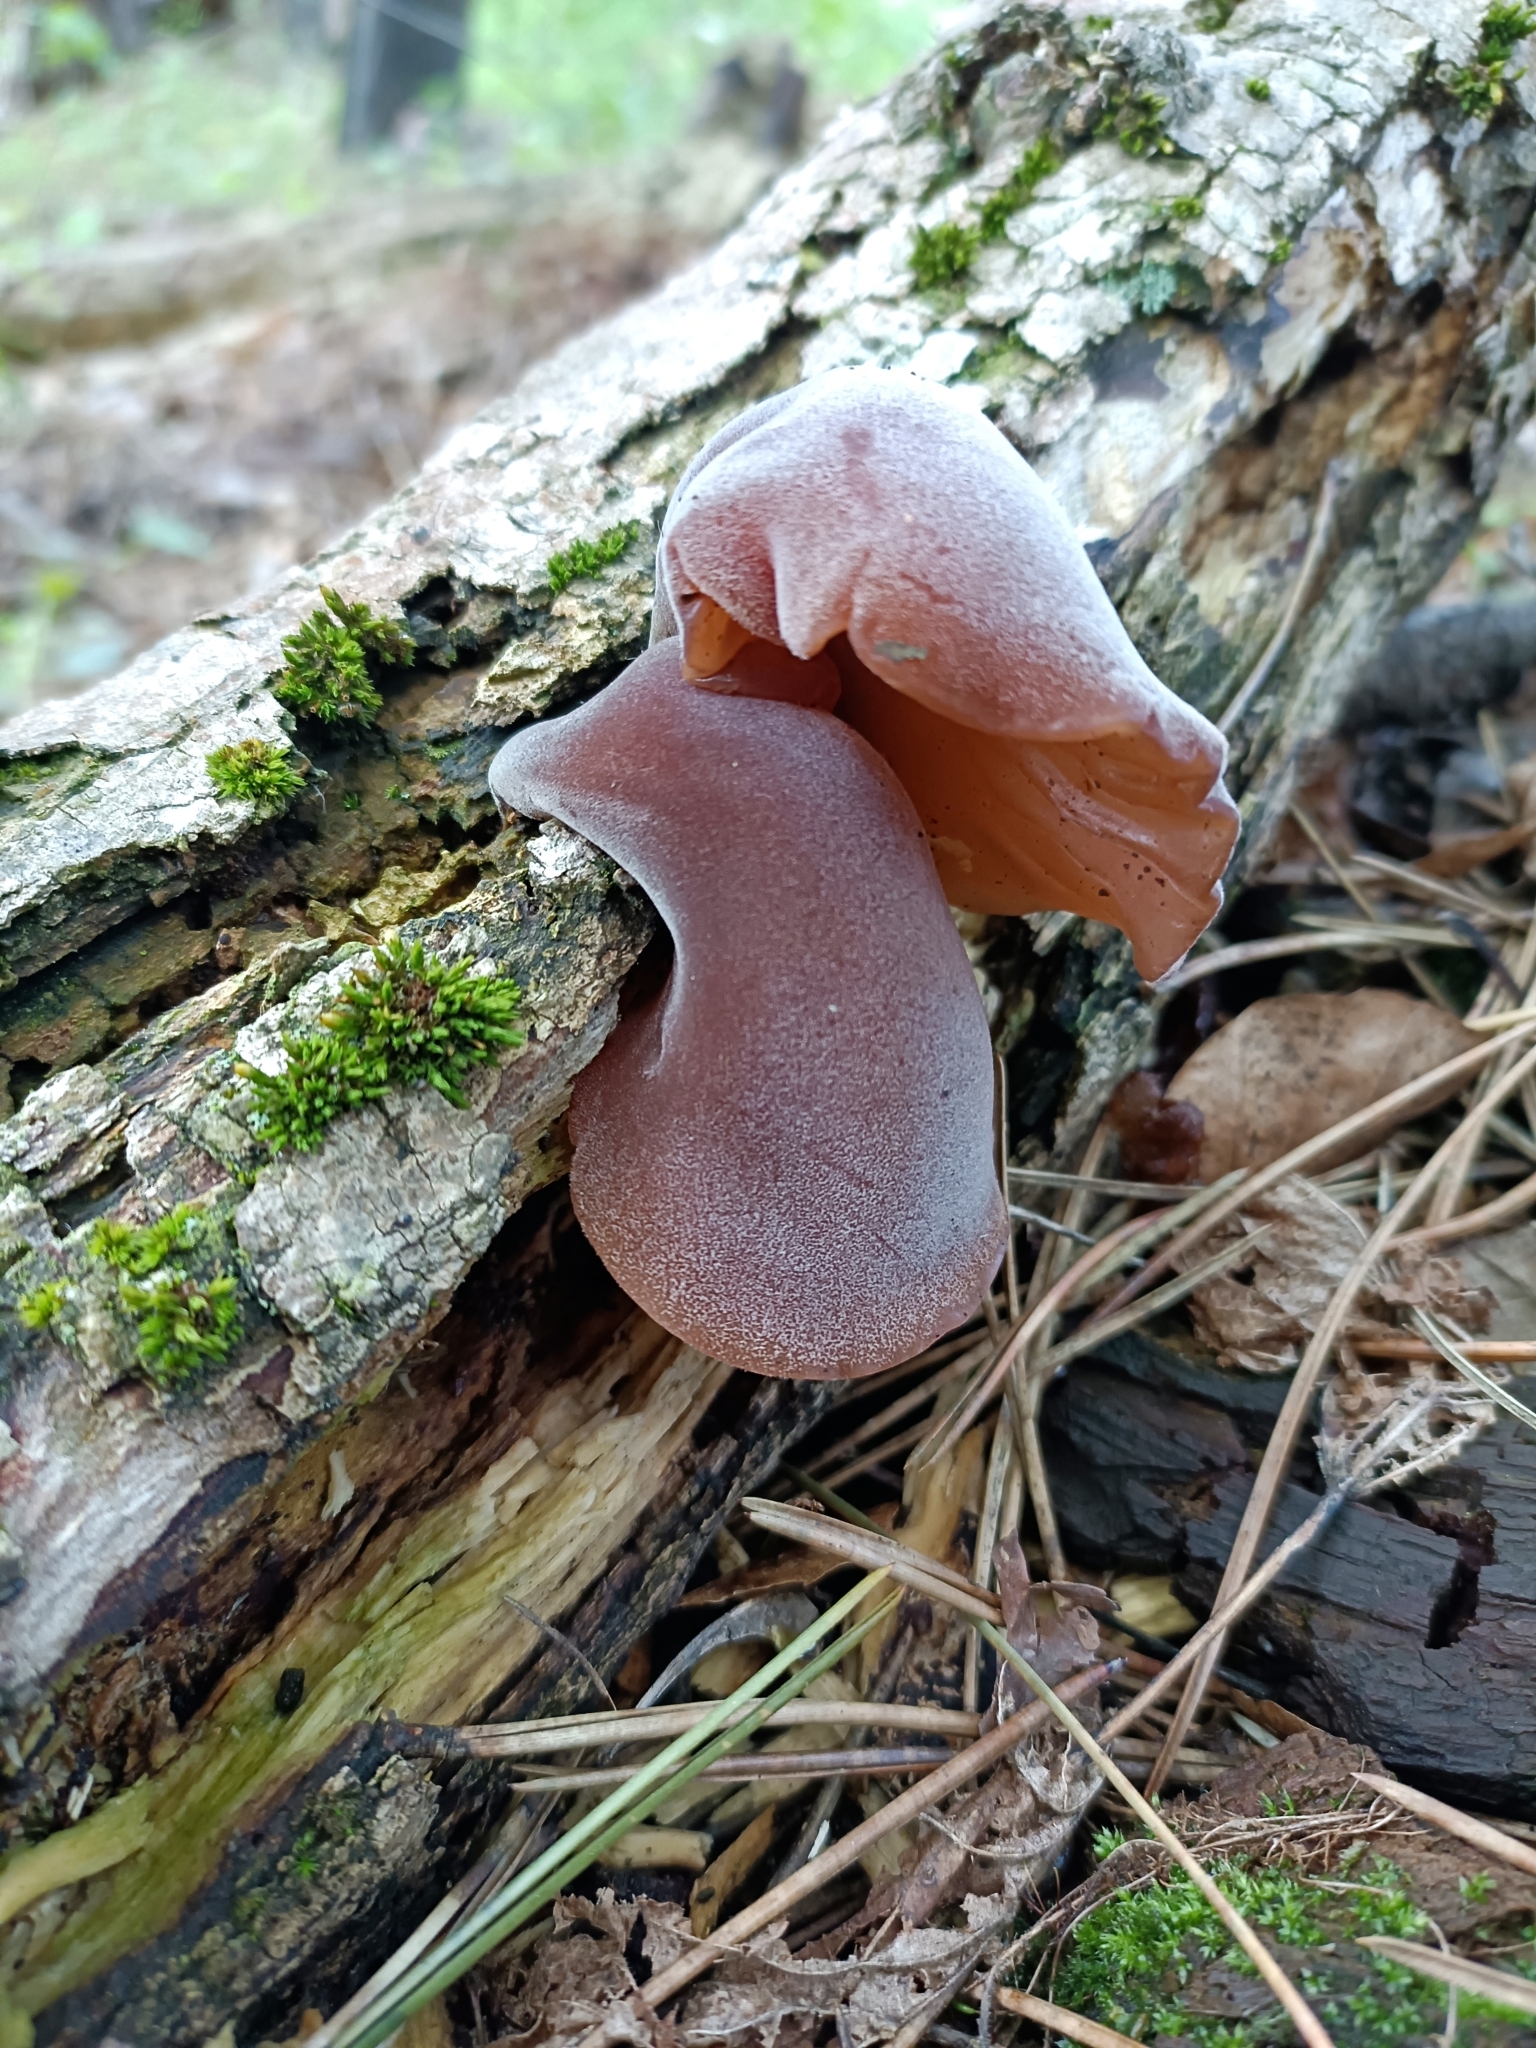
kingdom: Fungi
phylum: Basidiomycota
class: Agaricomycetes
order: Auriculariales
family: Auriculariaceae
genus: Auricularia
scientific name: Auricularia auricula-judae
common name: Jelly ear
